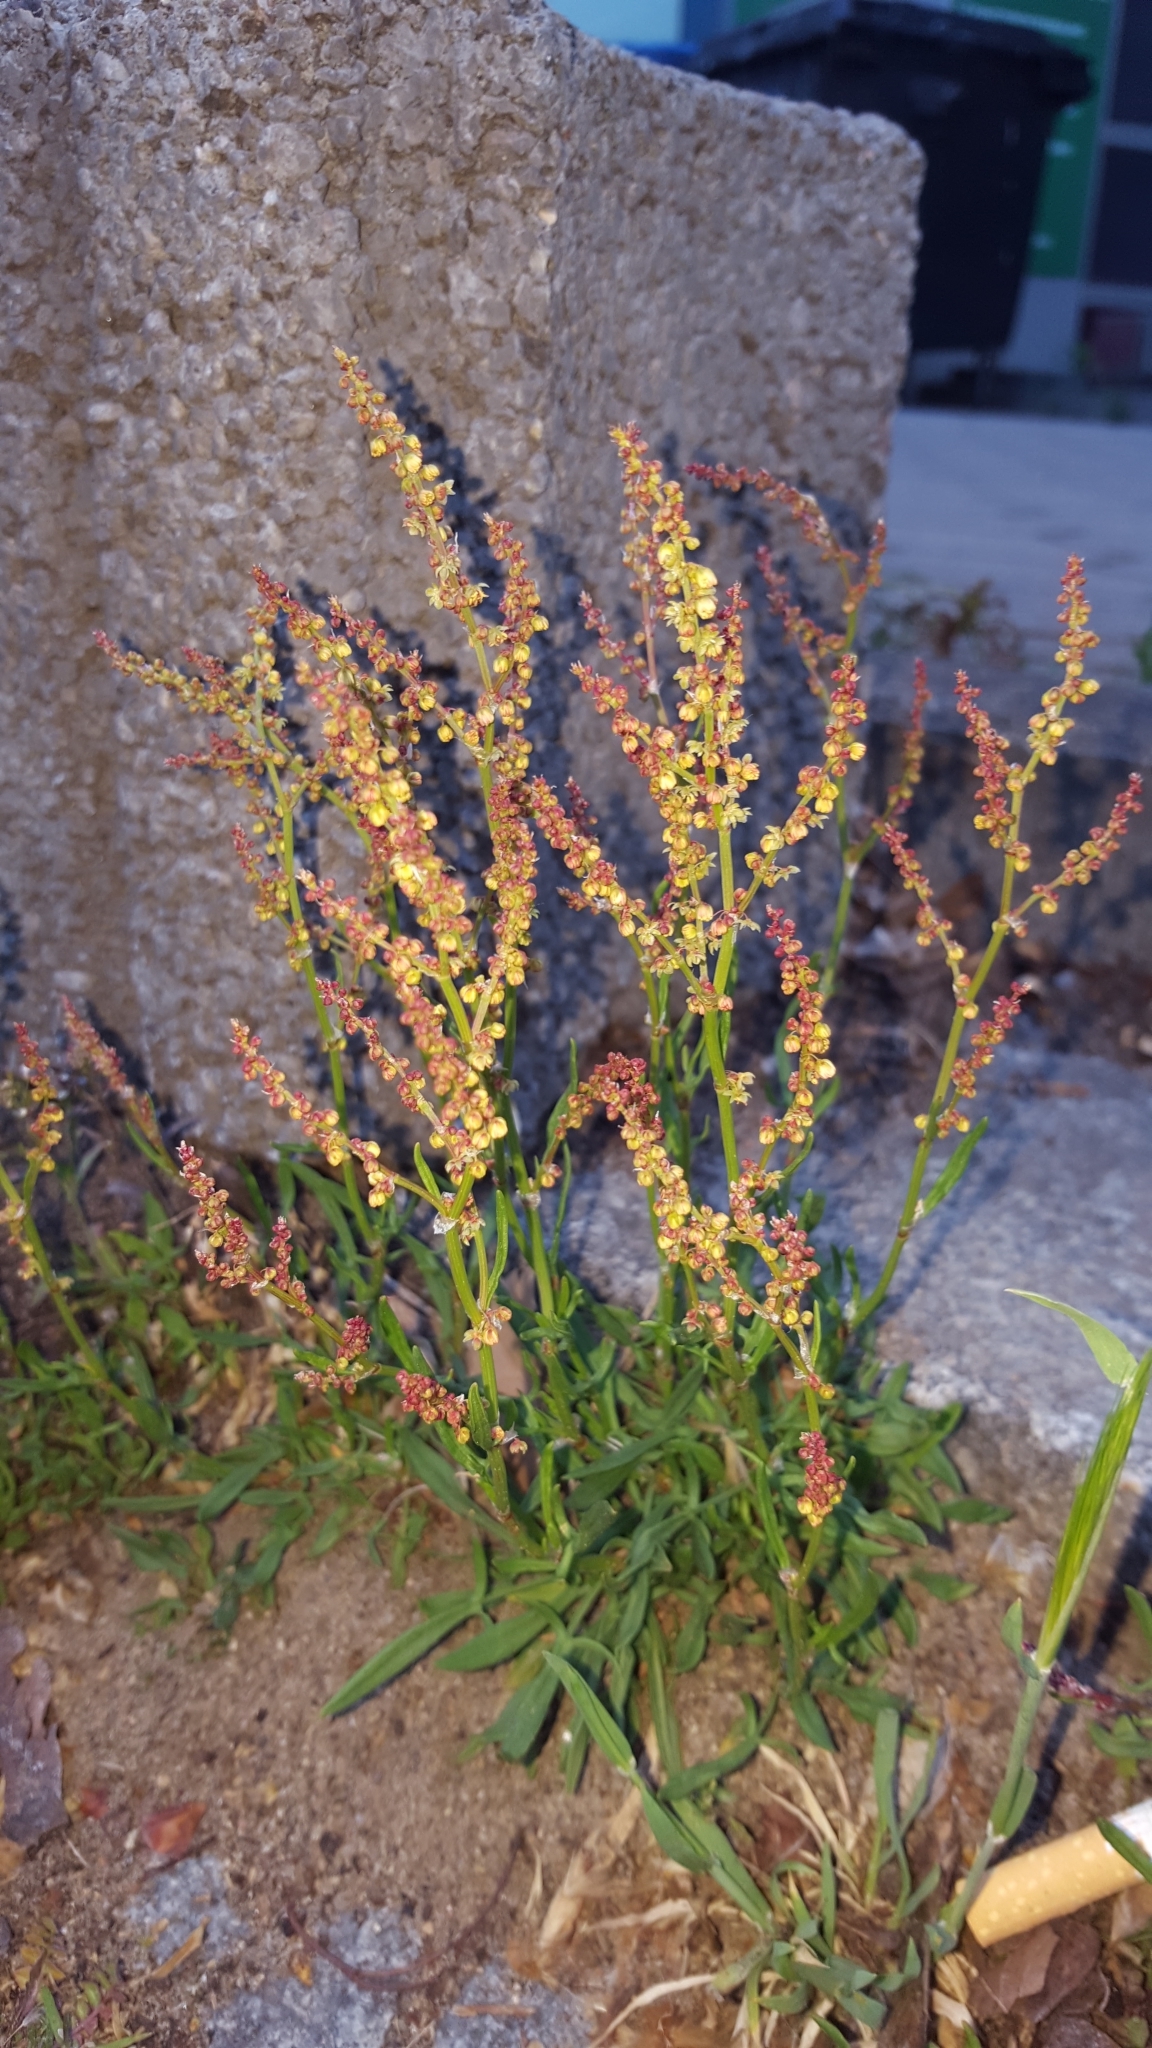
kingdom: Plantae
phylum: Tracheophyta
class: Magnoliopsida
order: Caryophyllales
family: Polygonaceae
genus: Rumex
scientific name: Rumex acetosella
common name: Common sheep sorrel
